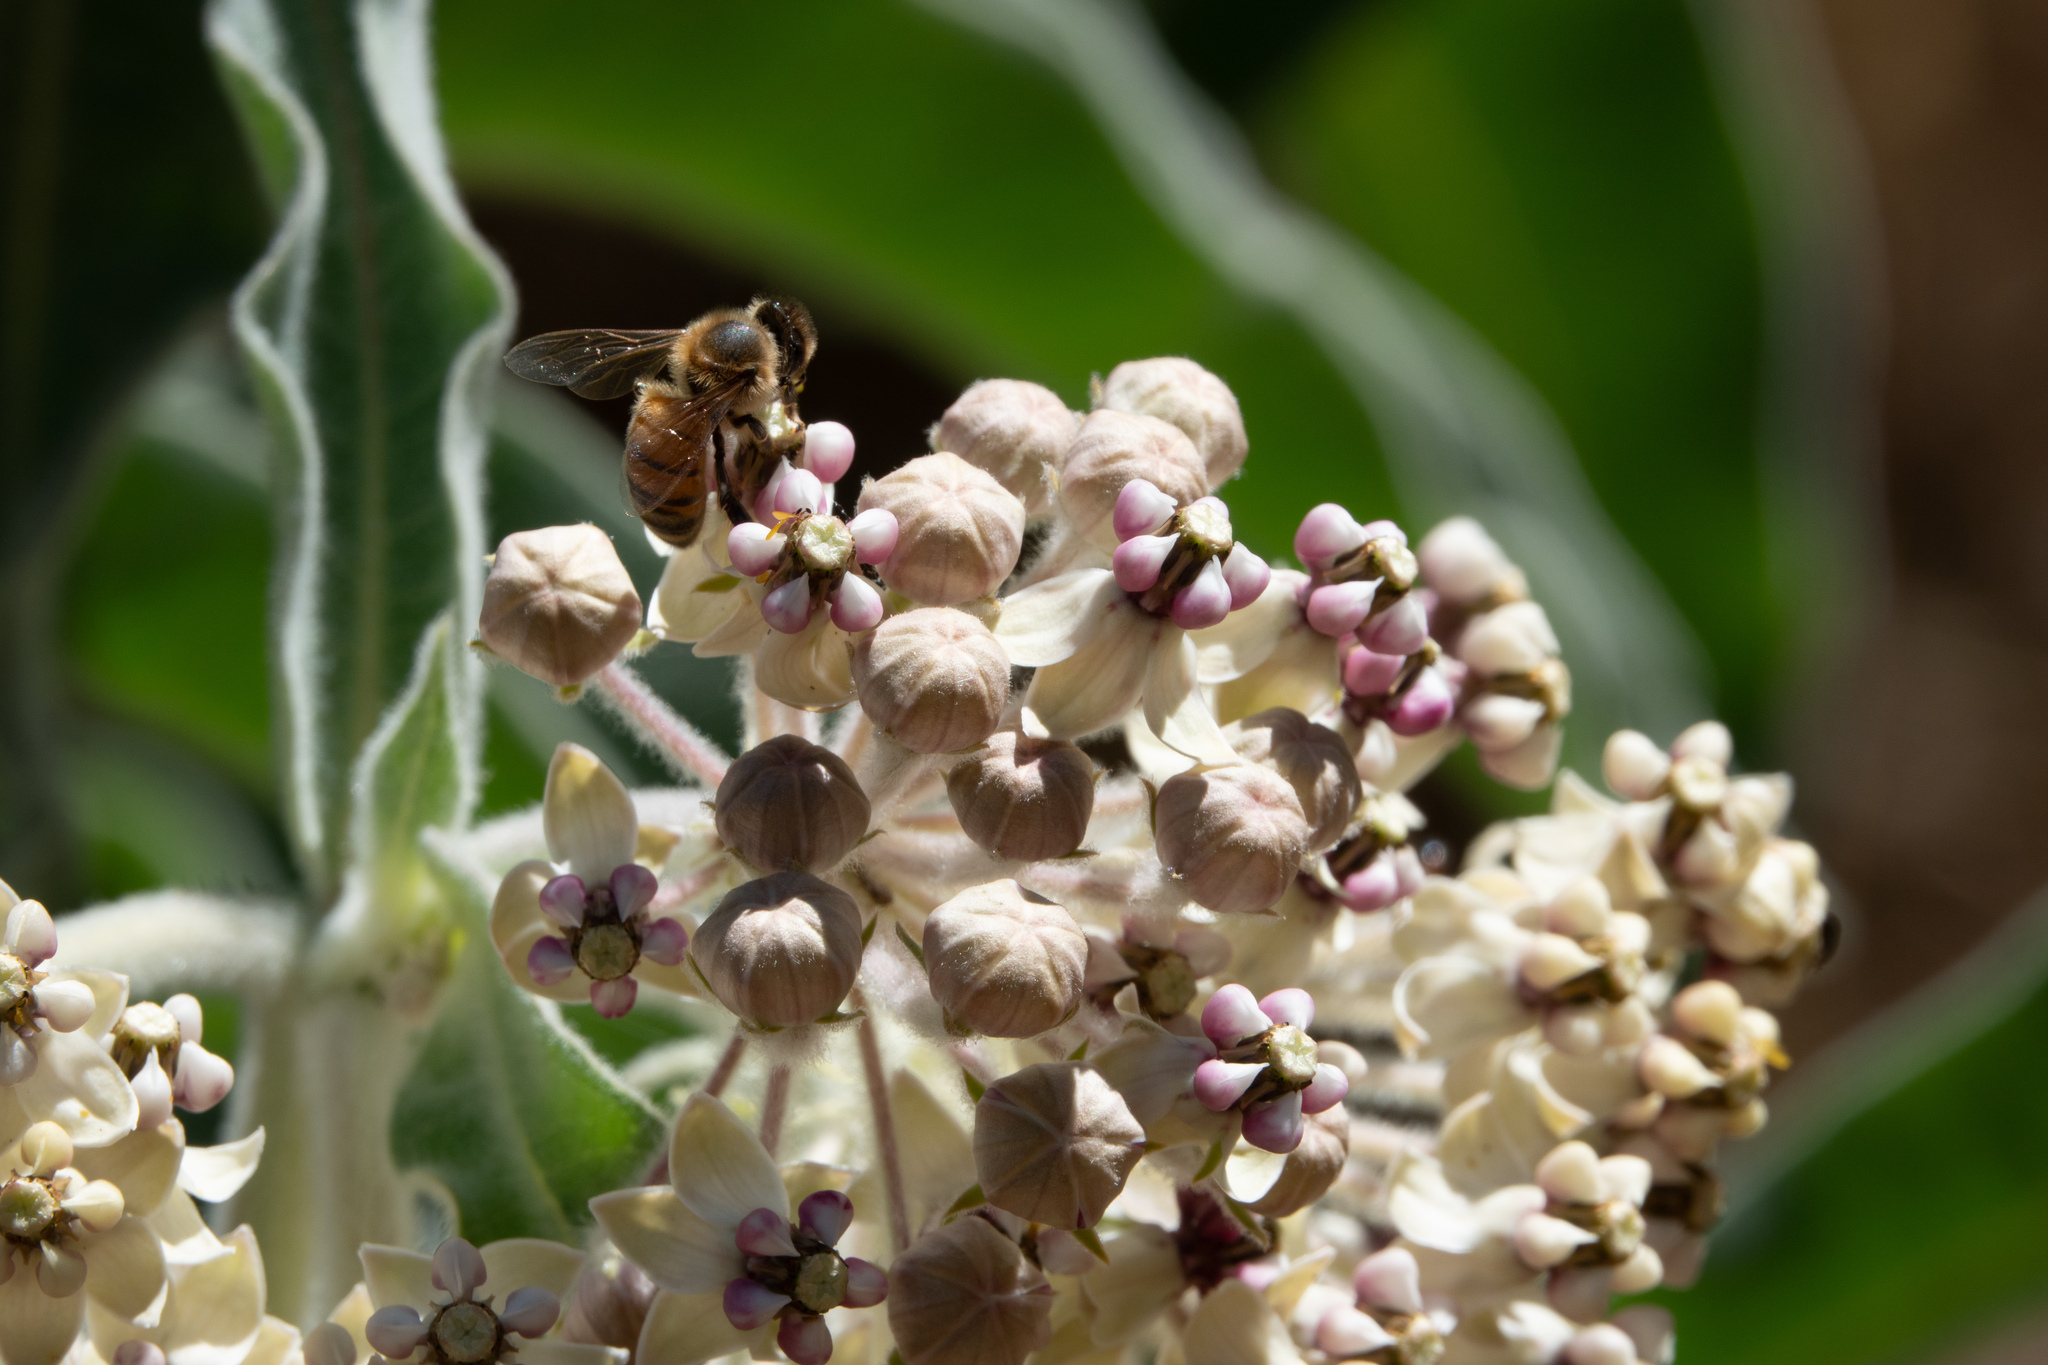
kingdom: Animalia
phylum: Arthropoda
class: Insecta
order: Hymenoptera
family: Apidae
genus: Apis
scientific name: Apis mellifera
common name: Honey bee
